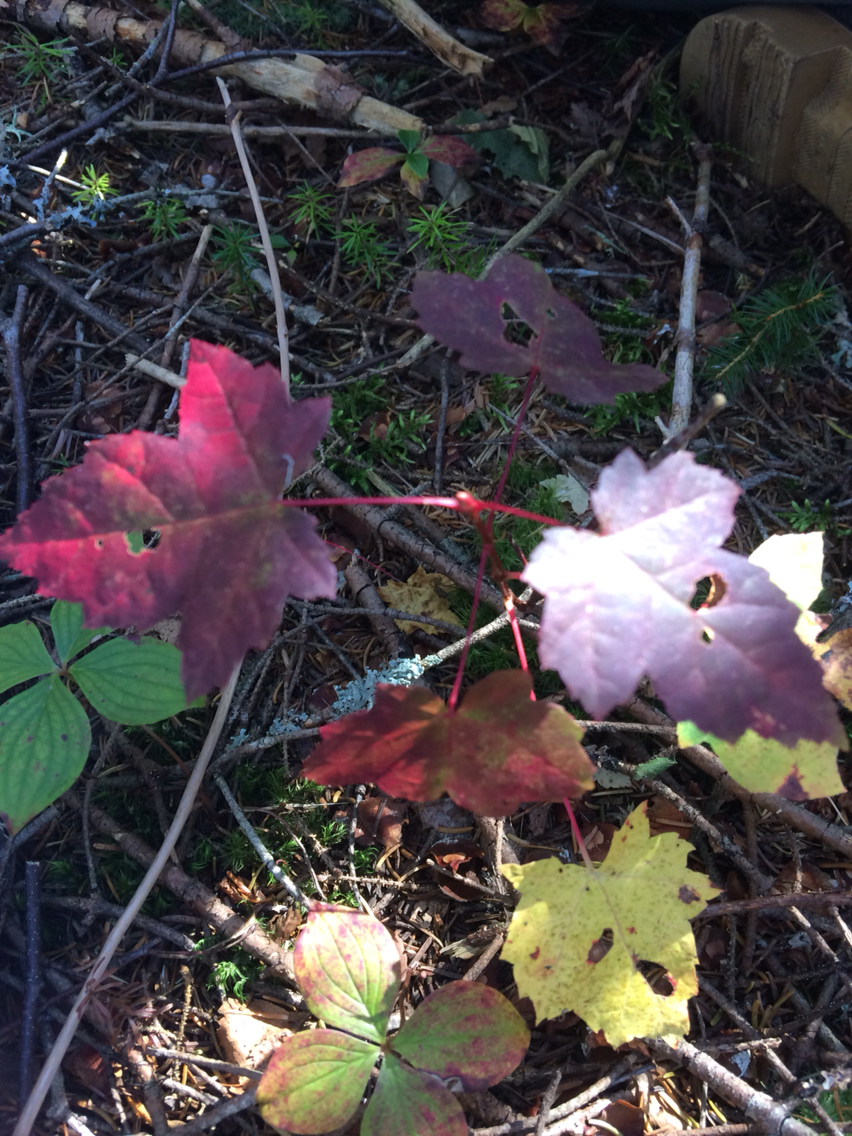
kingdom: Plantae
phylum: Tracheophyta
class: Magnoliopsida
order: Sapindales
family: Sapindaceae
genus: Acer
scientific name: Acer rubrum
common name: Red maple
